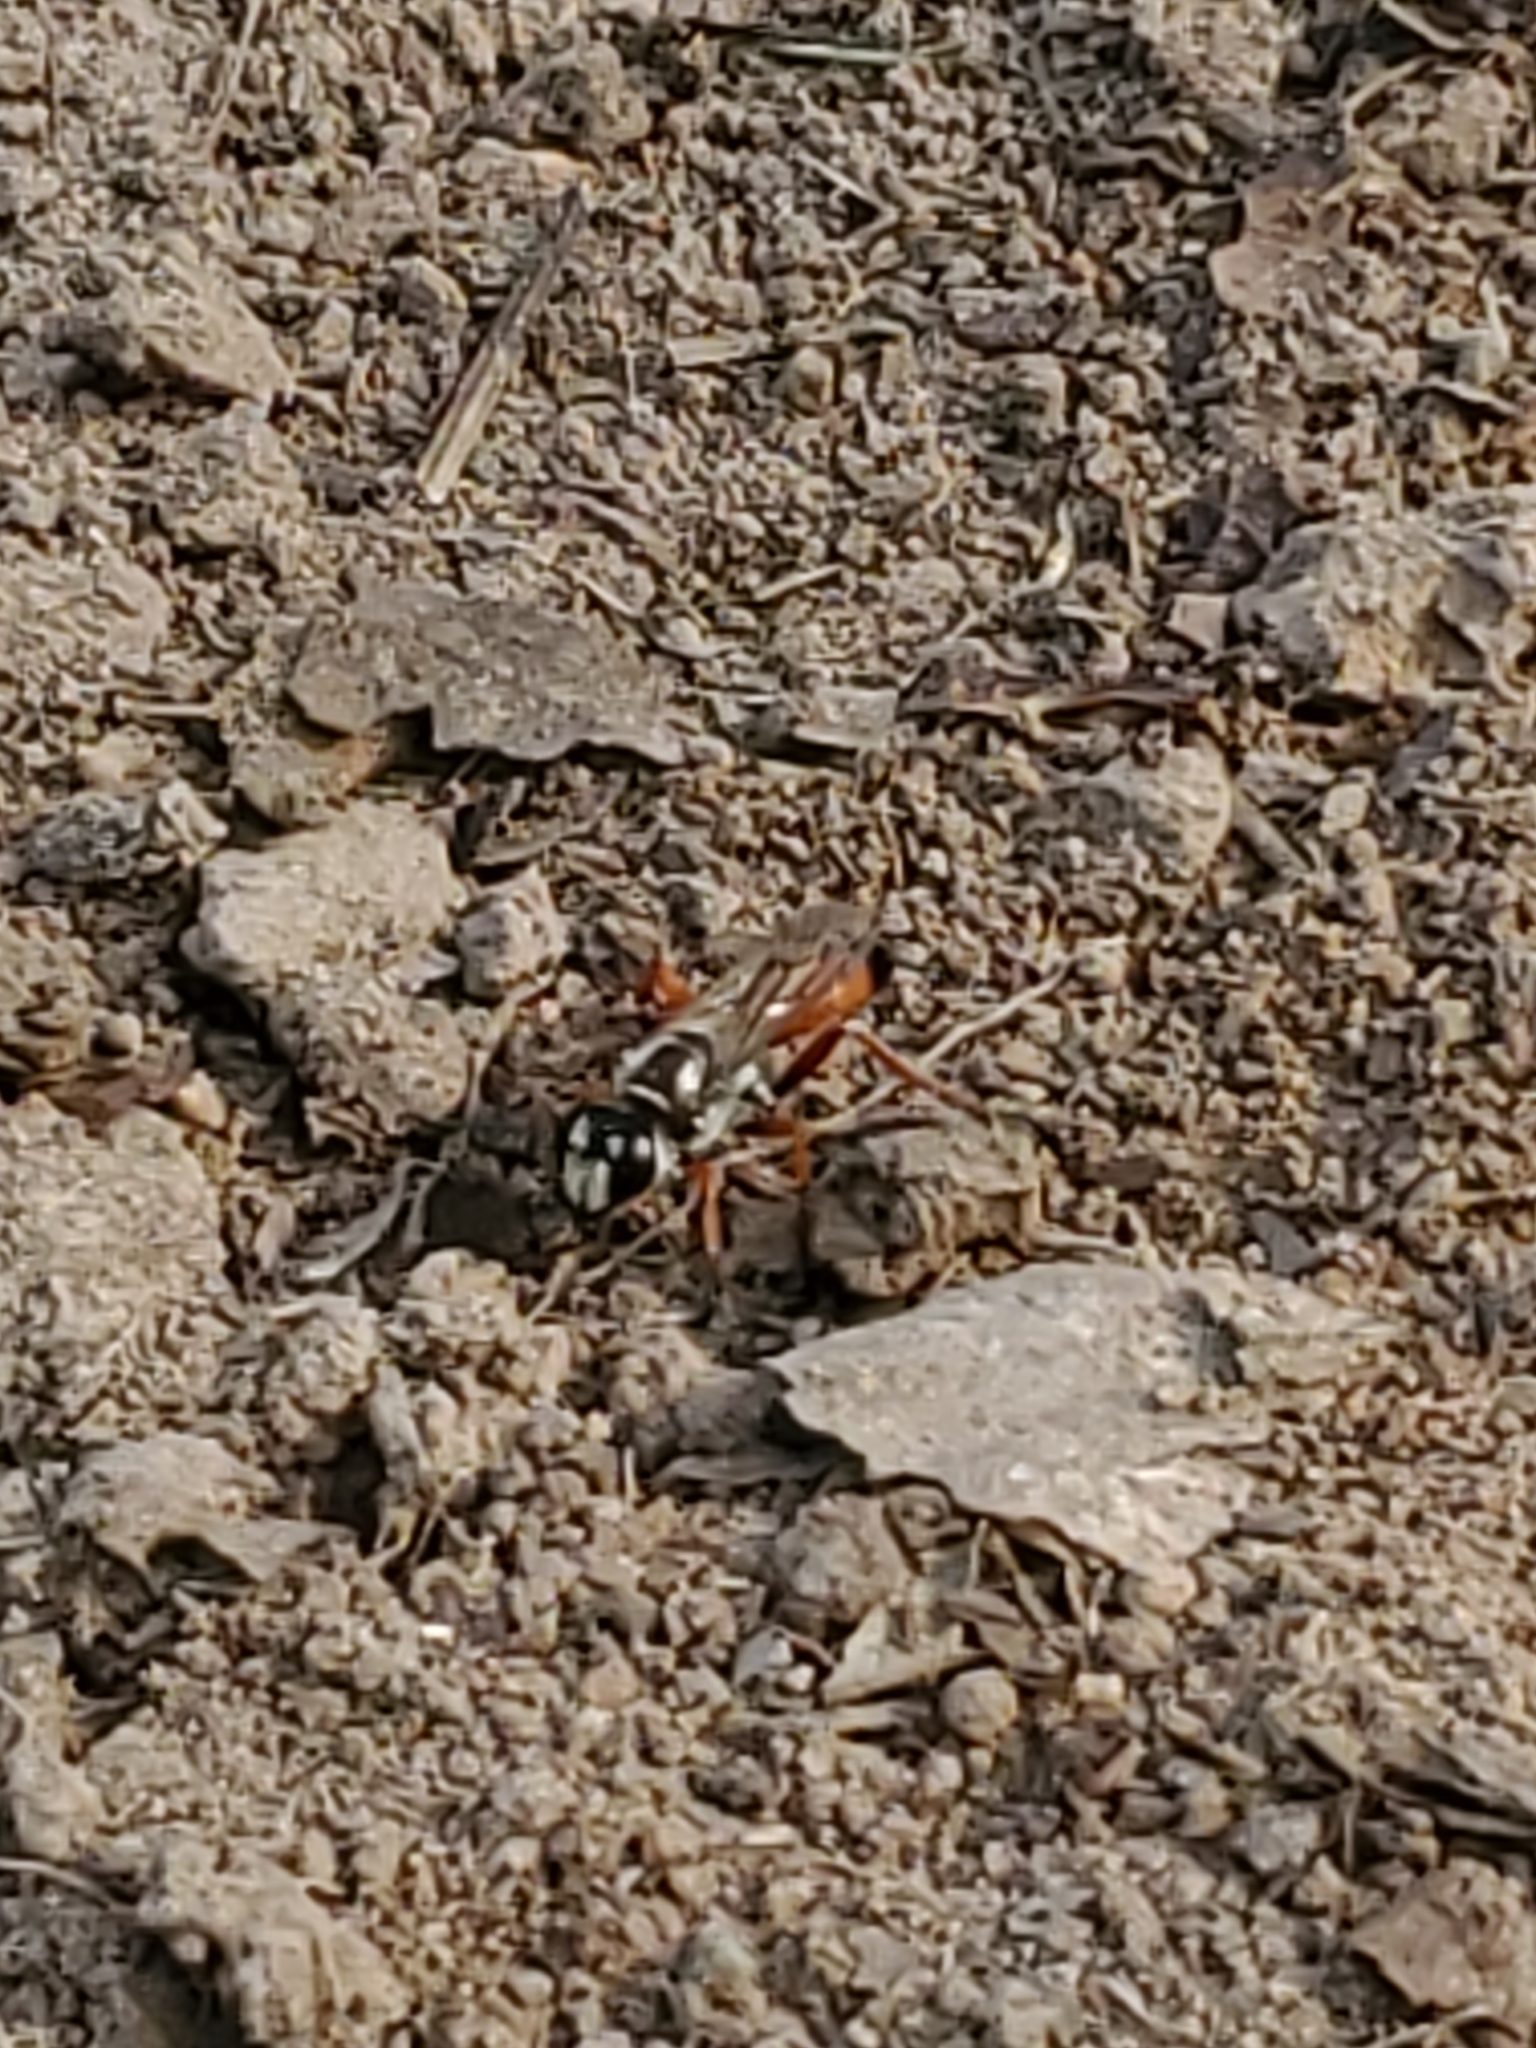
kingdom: Animalia
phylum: Arthropoda
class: Insecta
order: Hymenoptera
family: Sphecidae
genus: Sphex
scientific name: Sphex dorsalis
